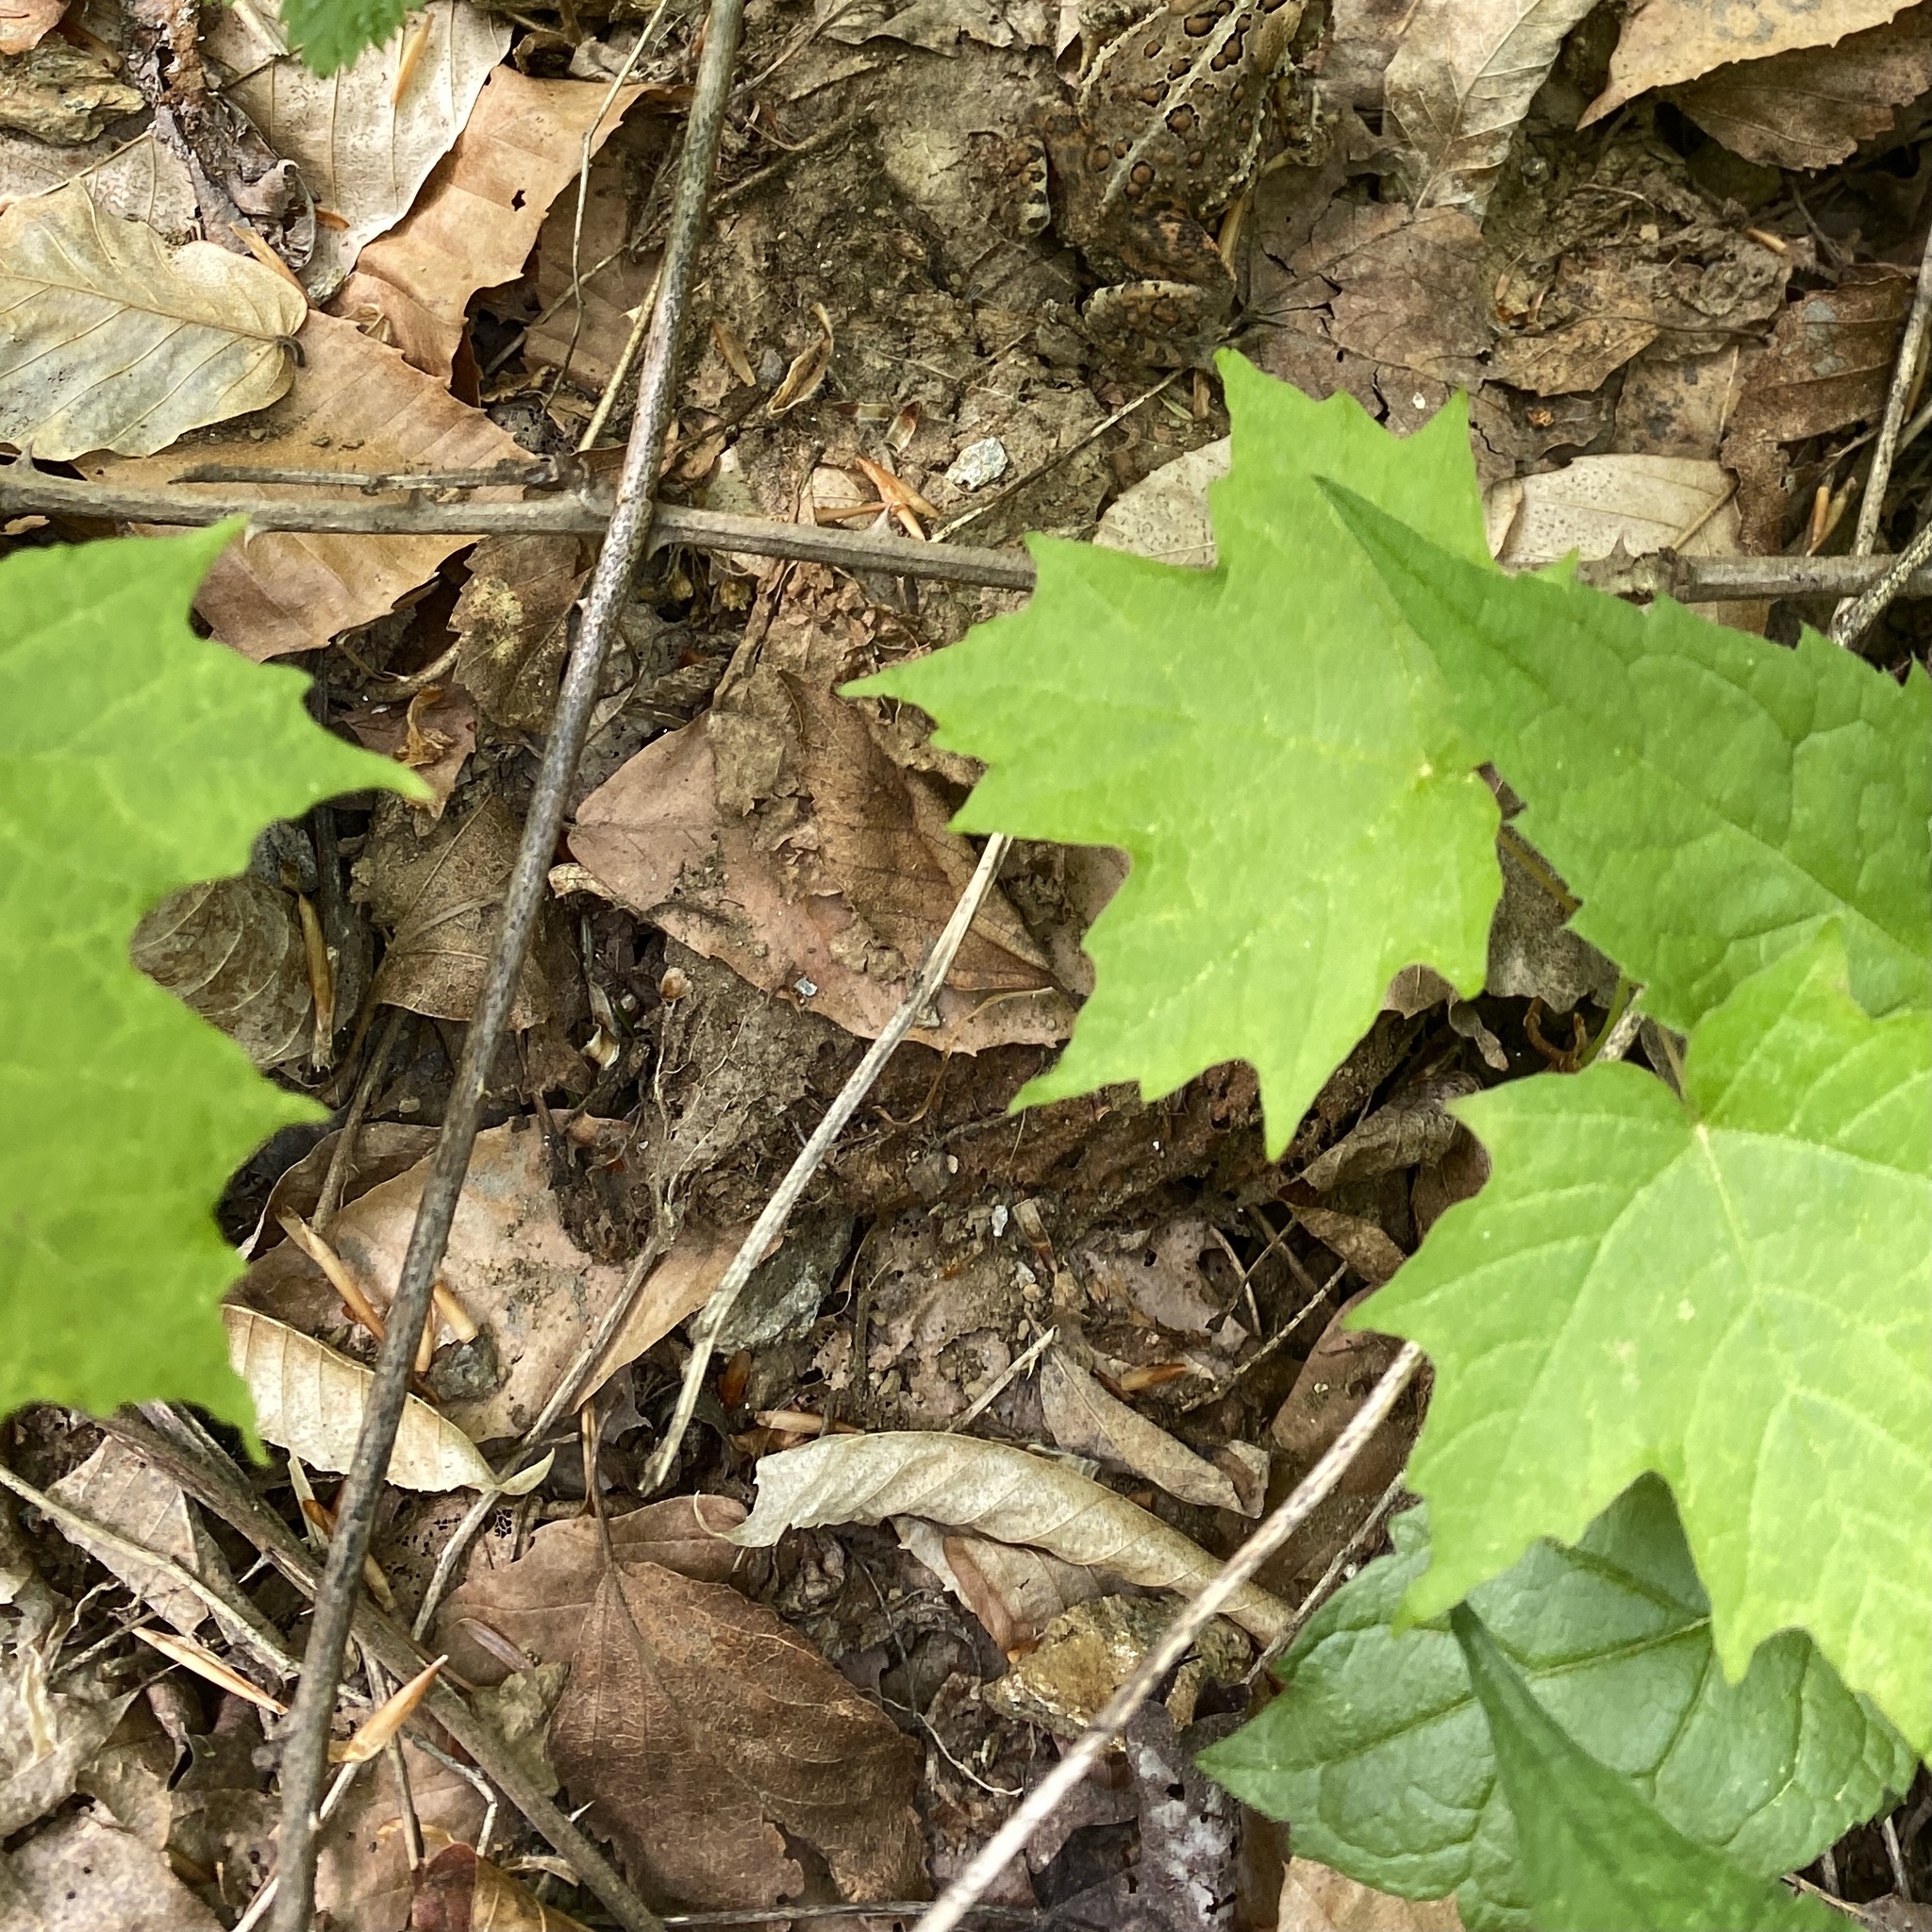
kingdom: Plantae
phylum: Tracheophyta
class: Magnoliopsida
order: Sapindales
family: Sapindaceae
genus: Acer
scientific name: Acer saccharum
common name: Sugar maple
